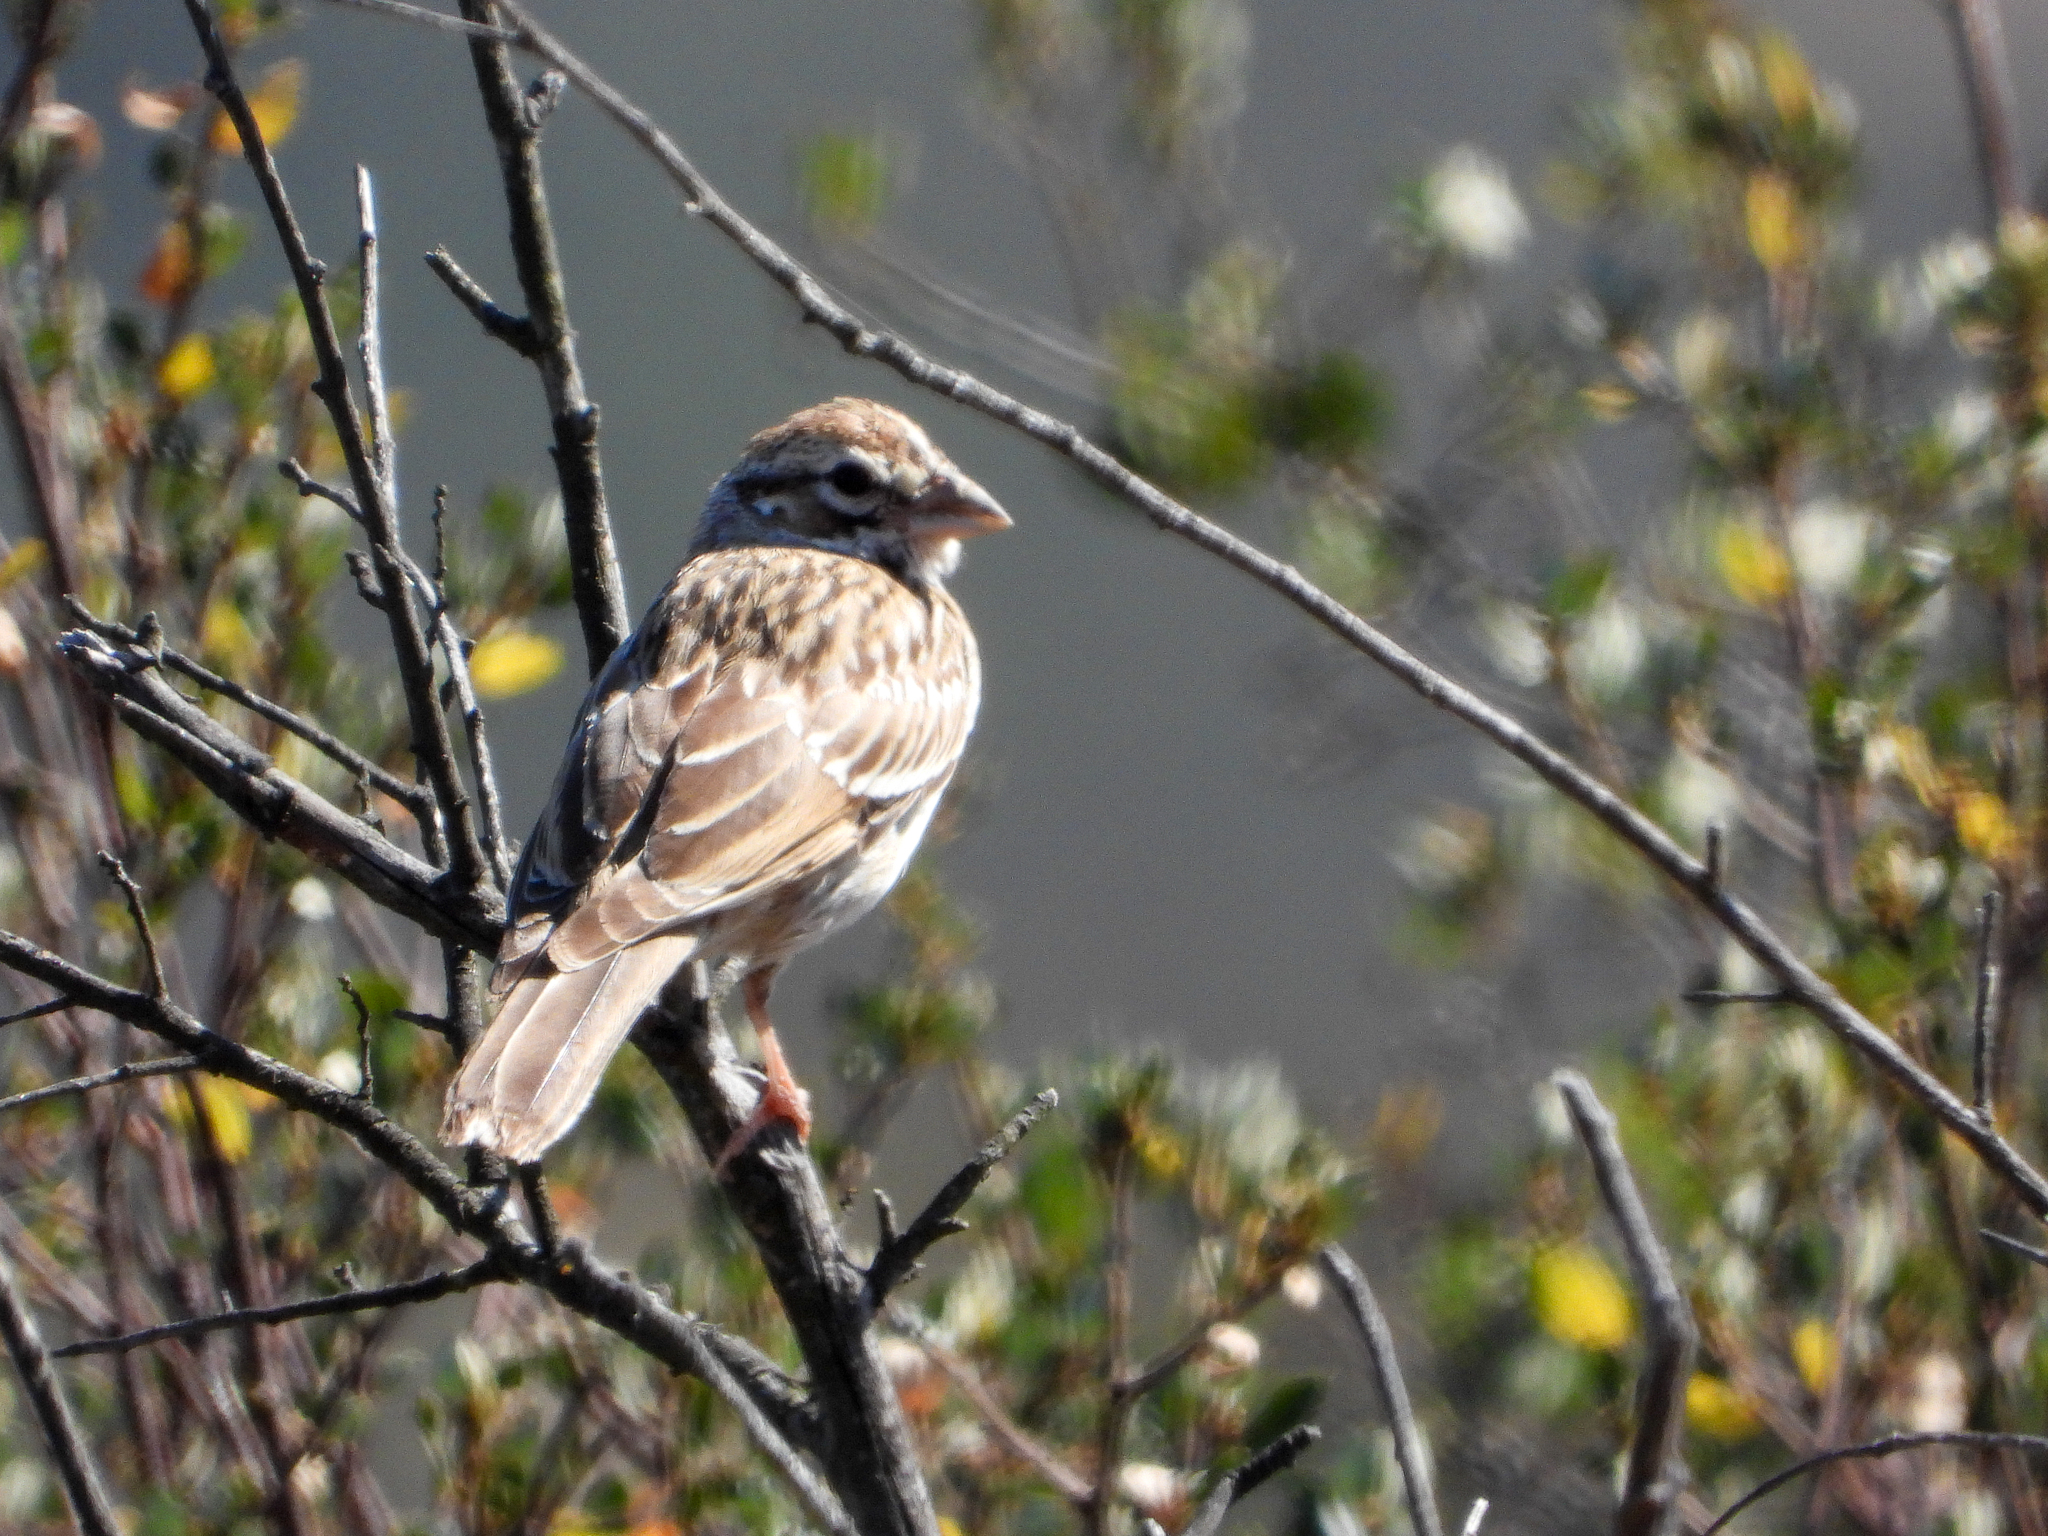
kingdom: Animalia
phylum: Chordata
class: Aves
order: Passeriformes
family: Passerellidae
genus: Chondestes
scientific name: Chondestes grammacus
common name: Lark sparrow
